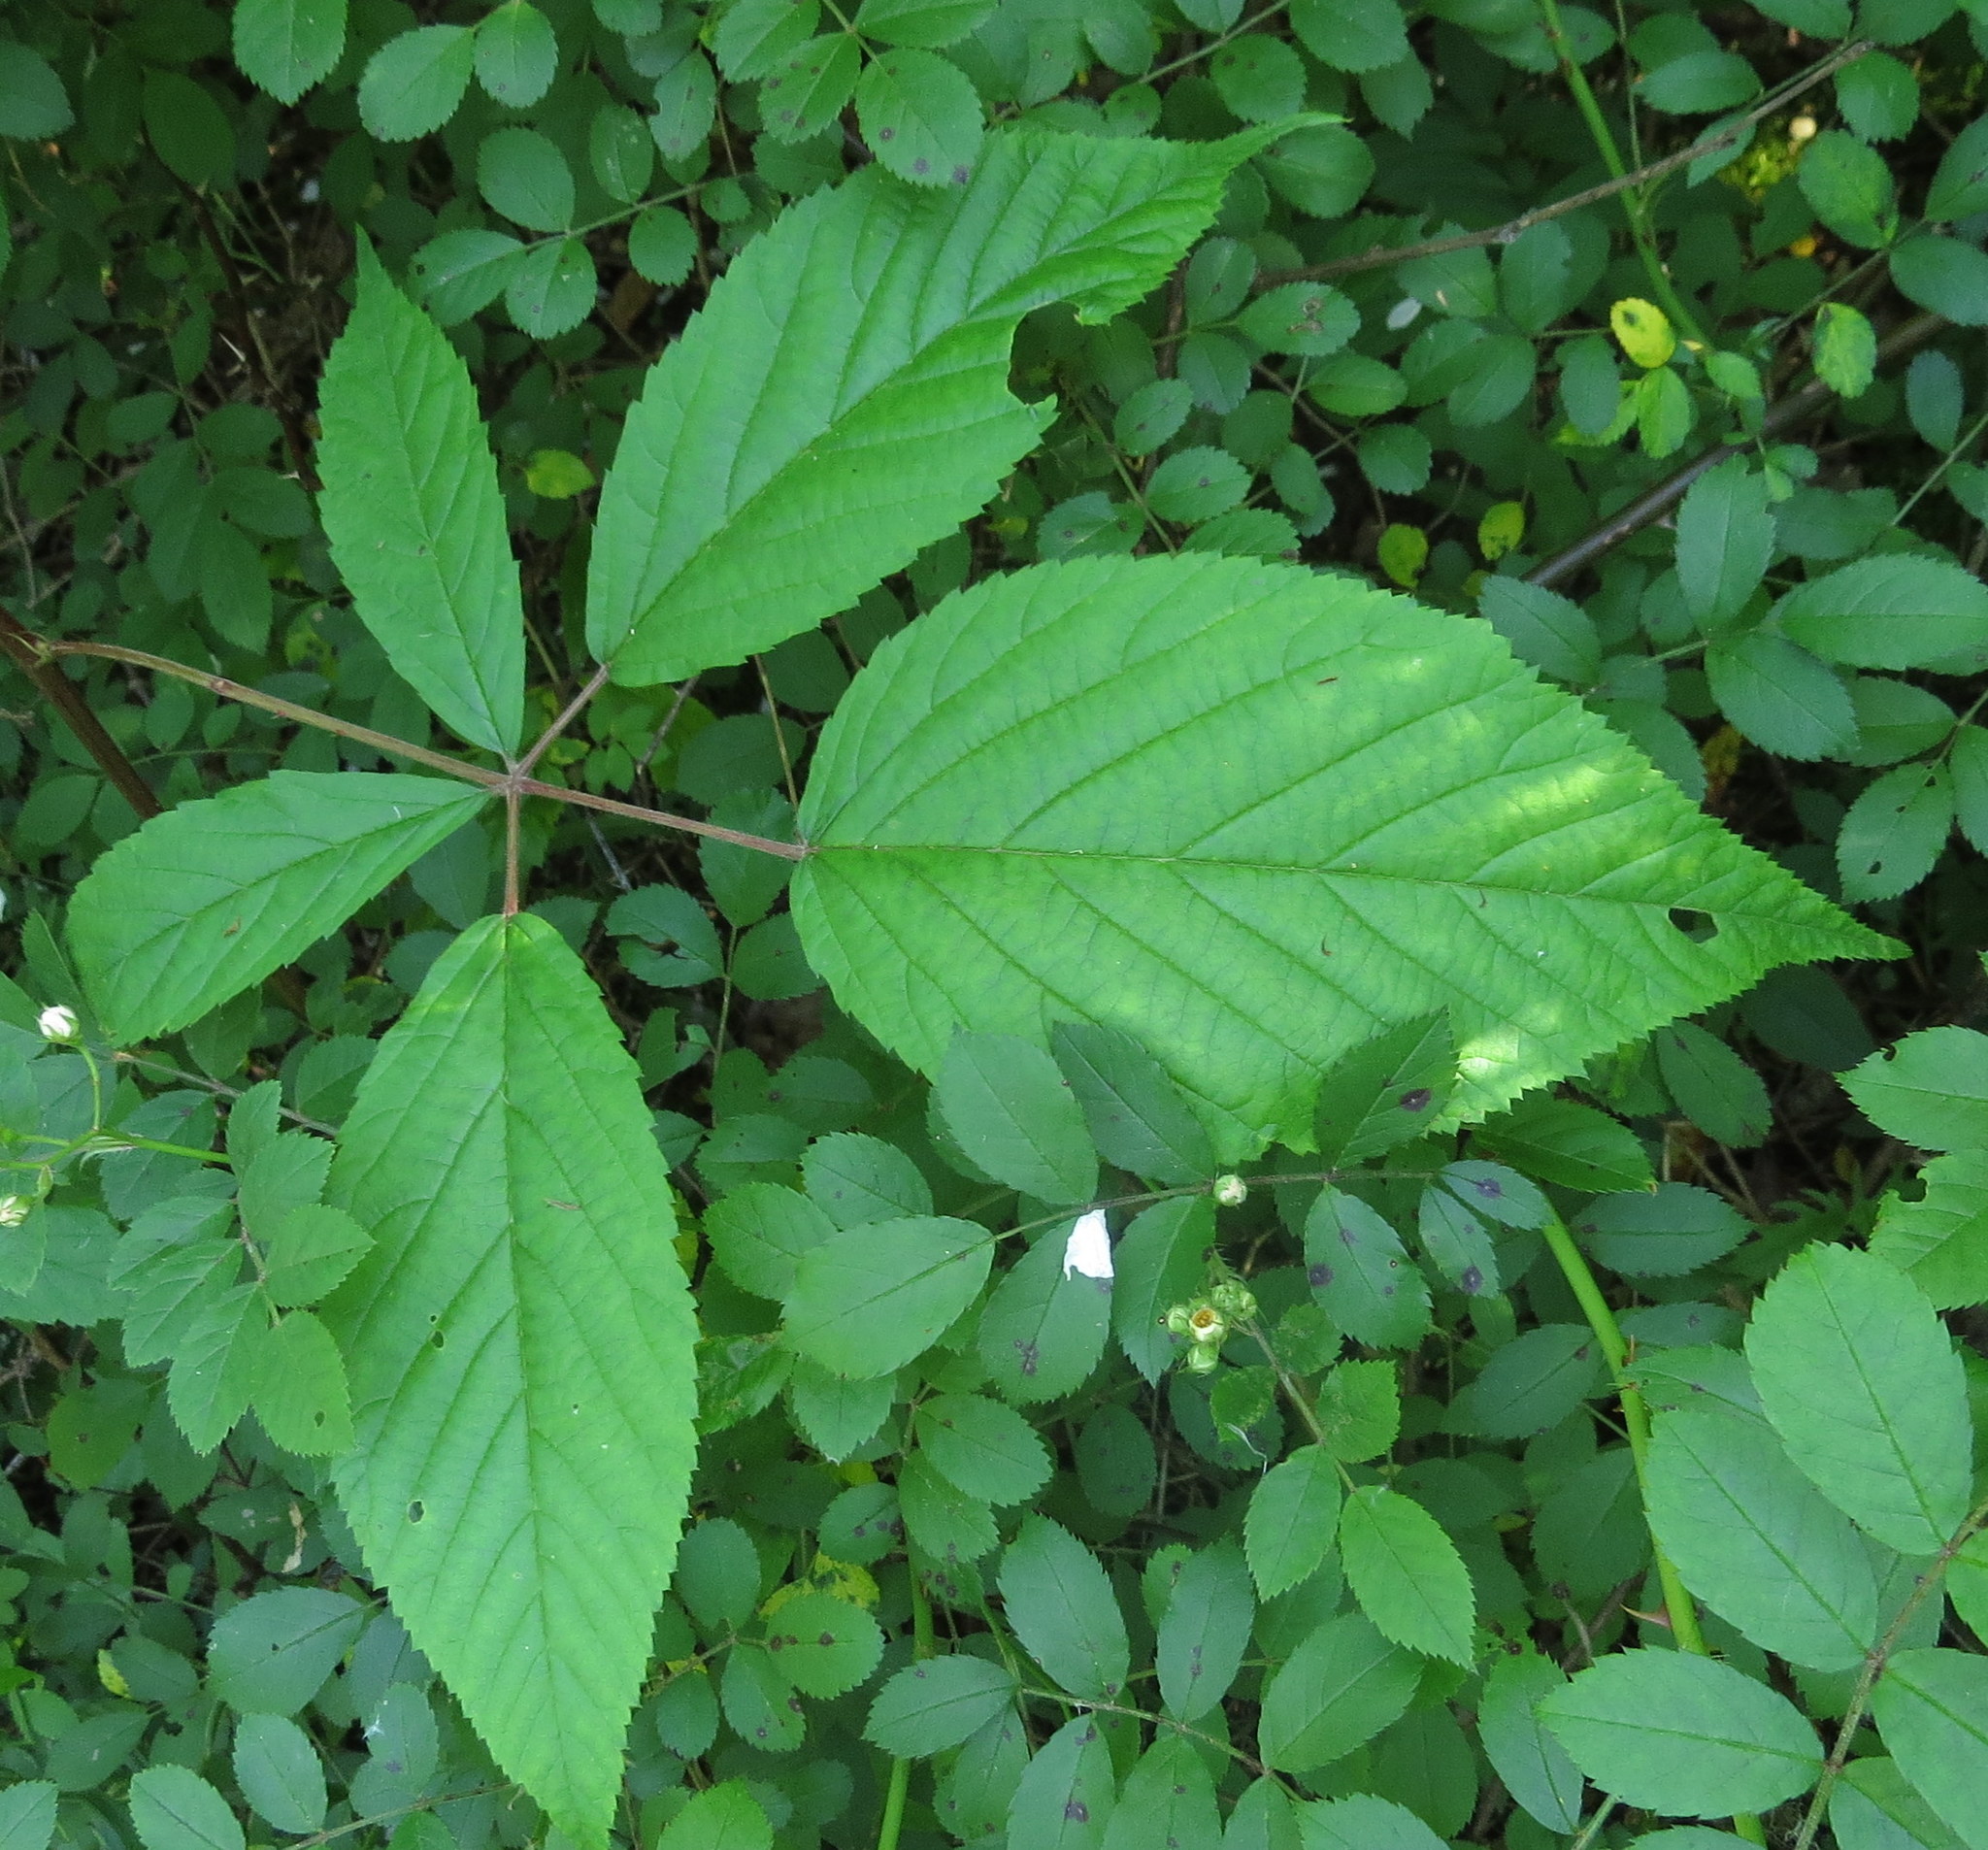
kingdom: Plantae
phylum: Tracheophyta
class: Magnoliopsida
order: Rosales
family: Rosaceae
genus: Rubus
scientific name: Rubus allegheniensis
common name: Allegheny blackberry
